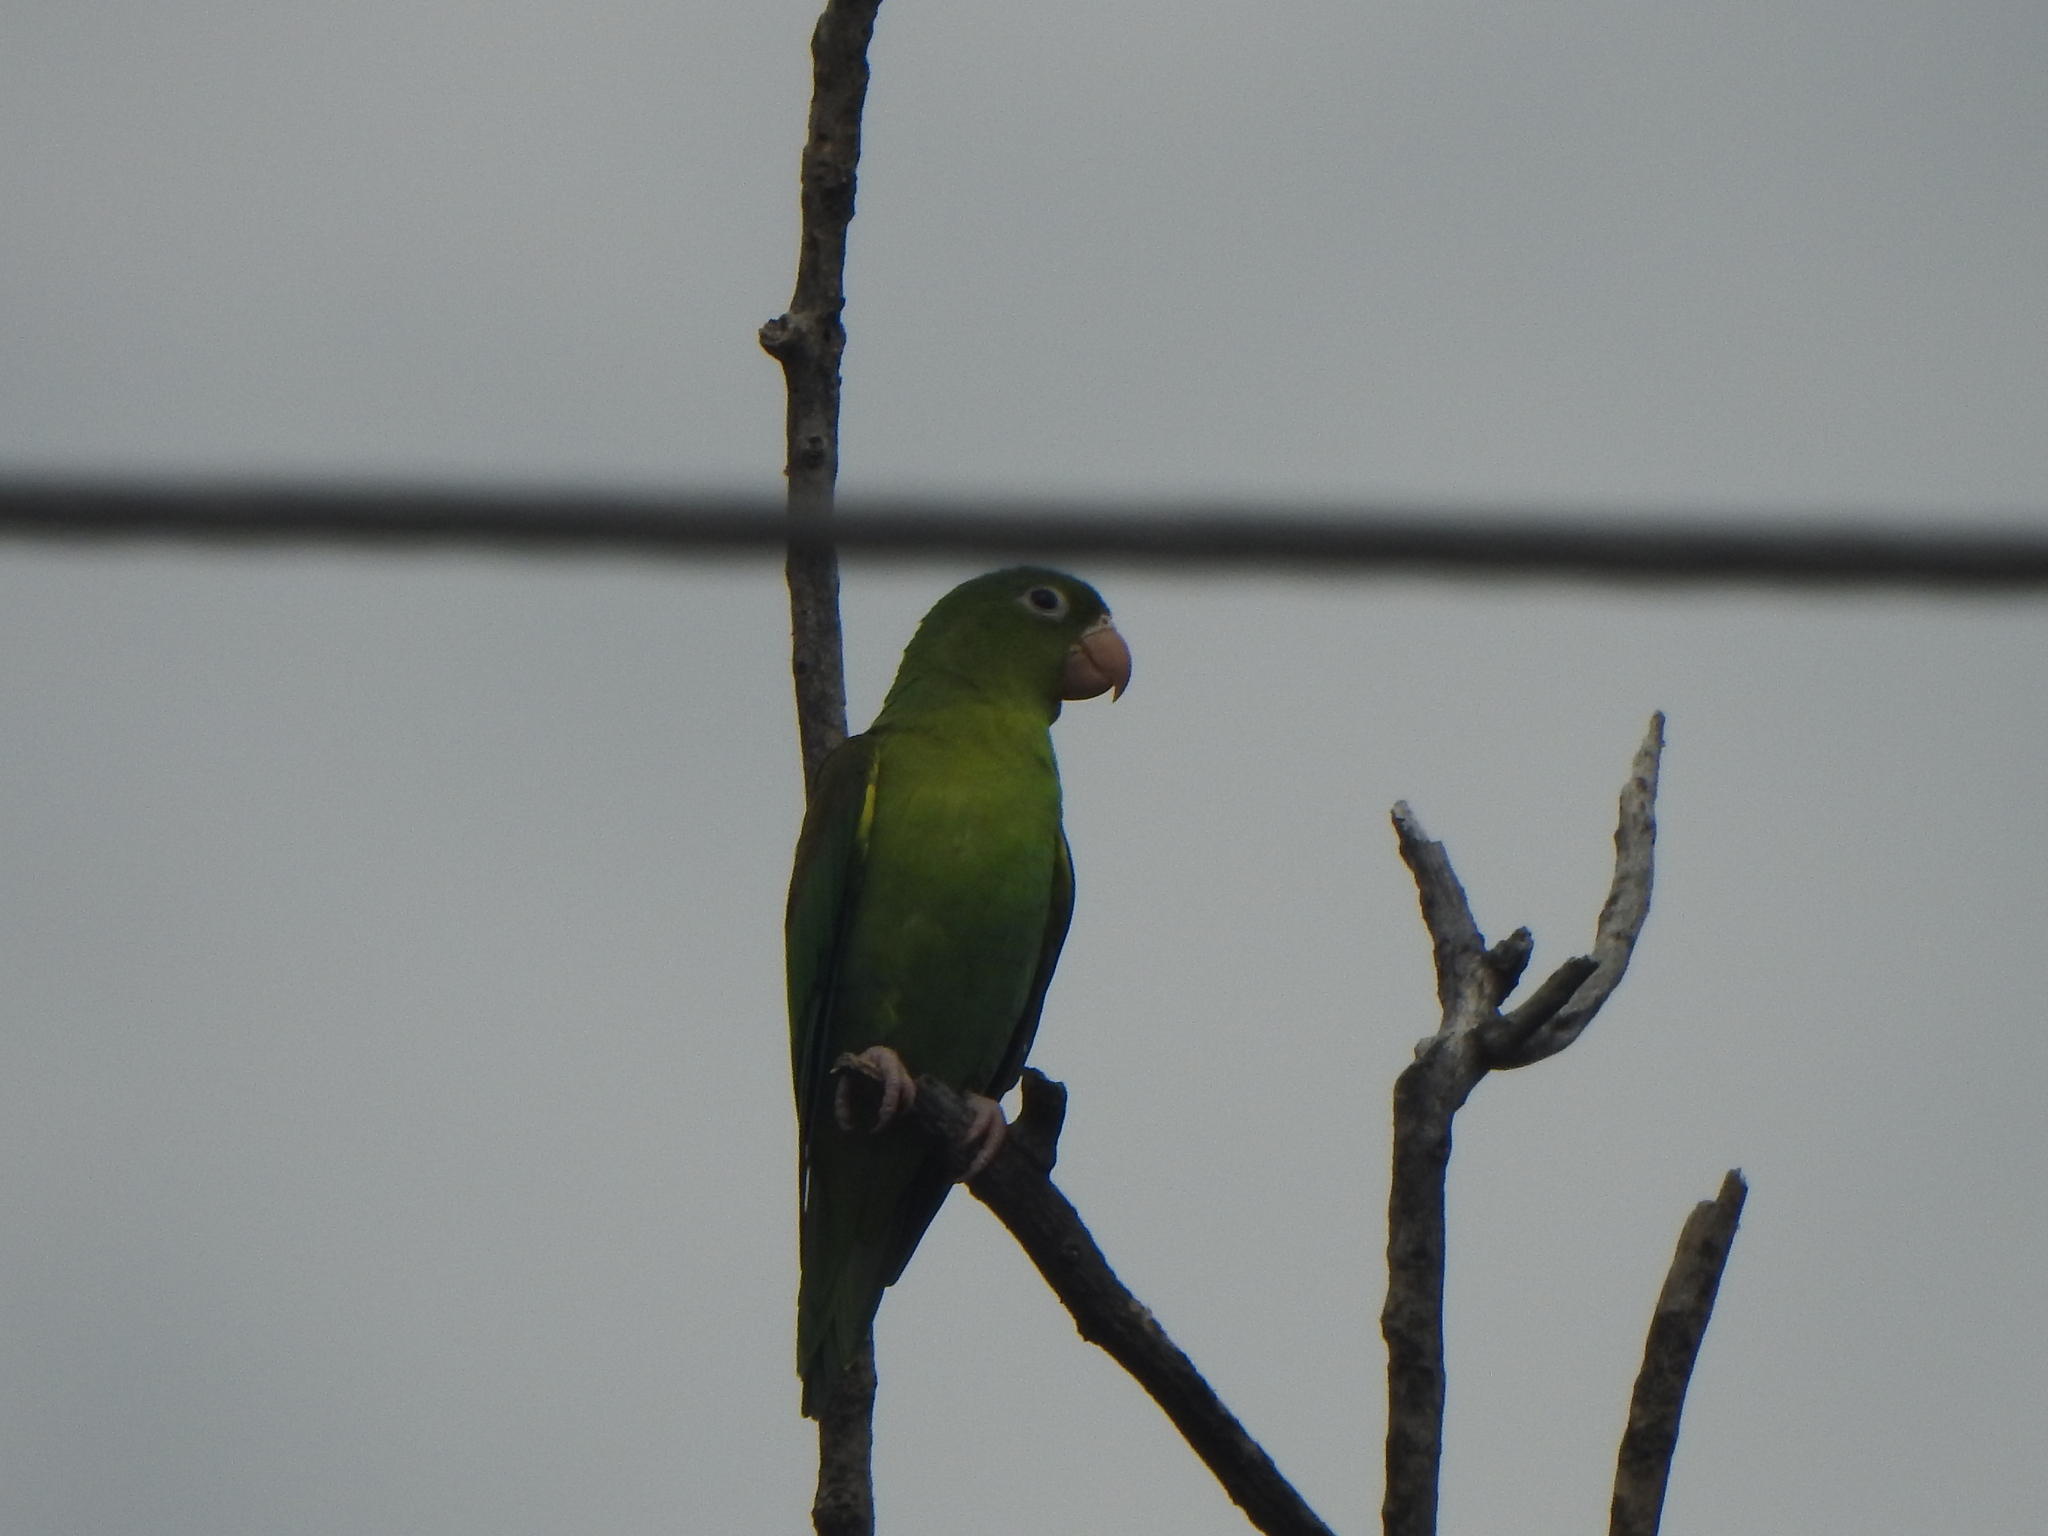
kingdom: Animalia
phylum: Chordata
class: Aves
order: Psittaciformes
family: Psittacidae
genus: Brotogeris
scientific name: Brotogeris jugularis
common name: Orange-chinned parakeet
